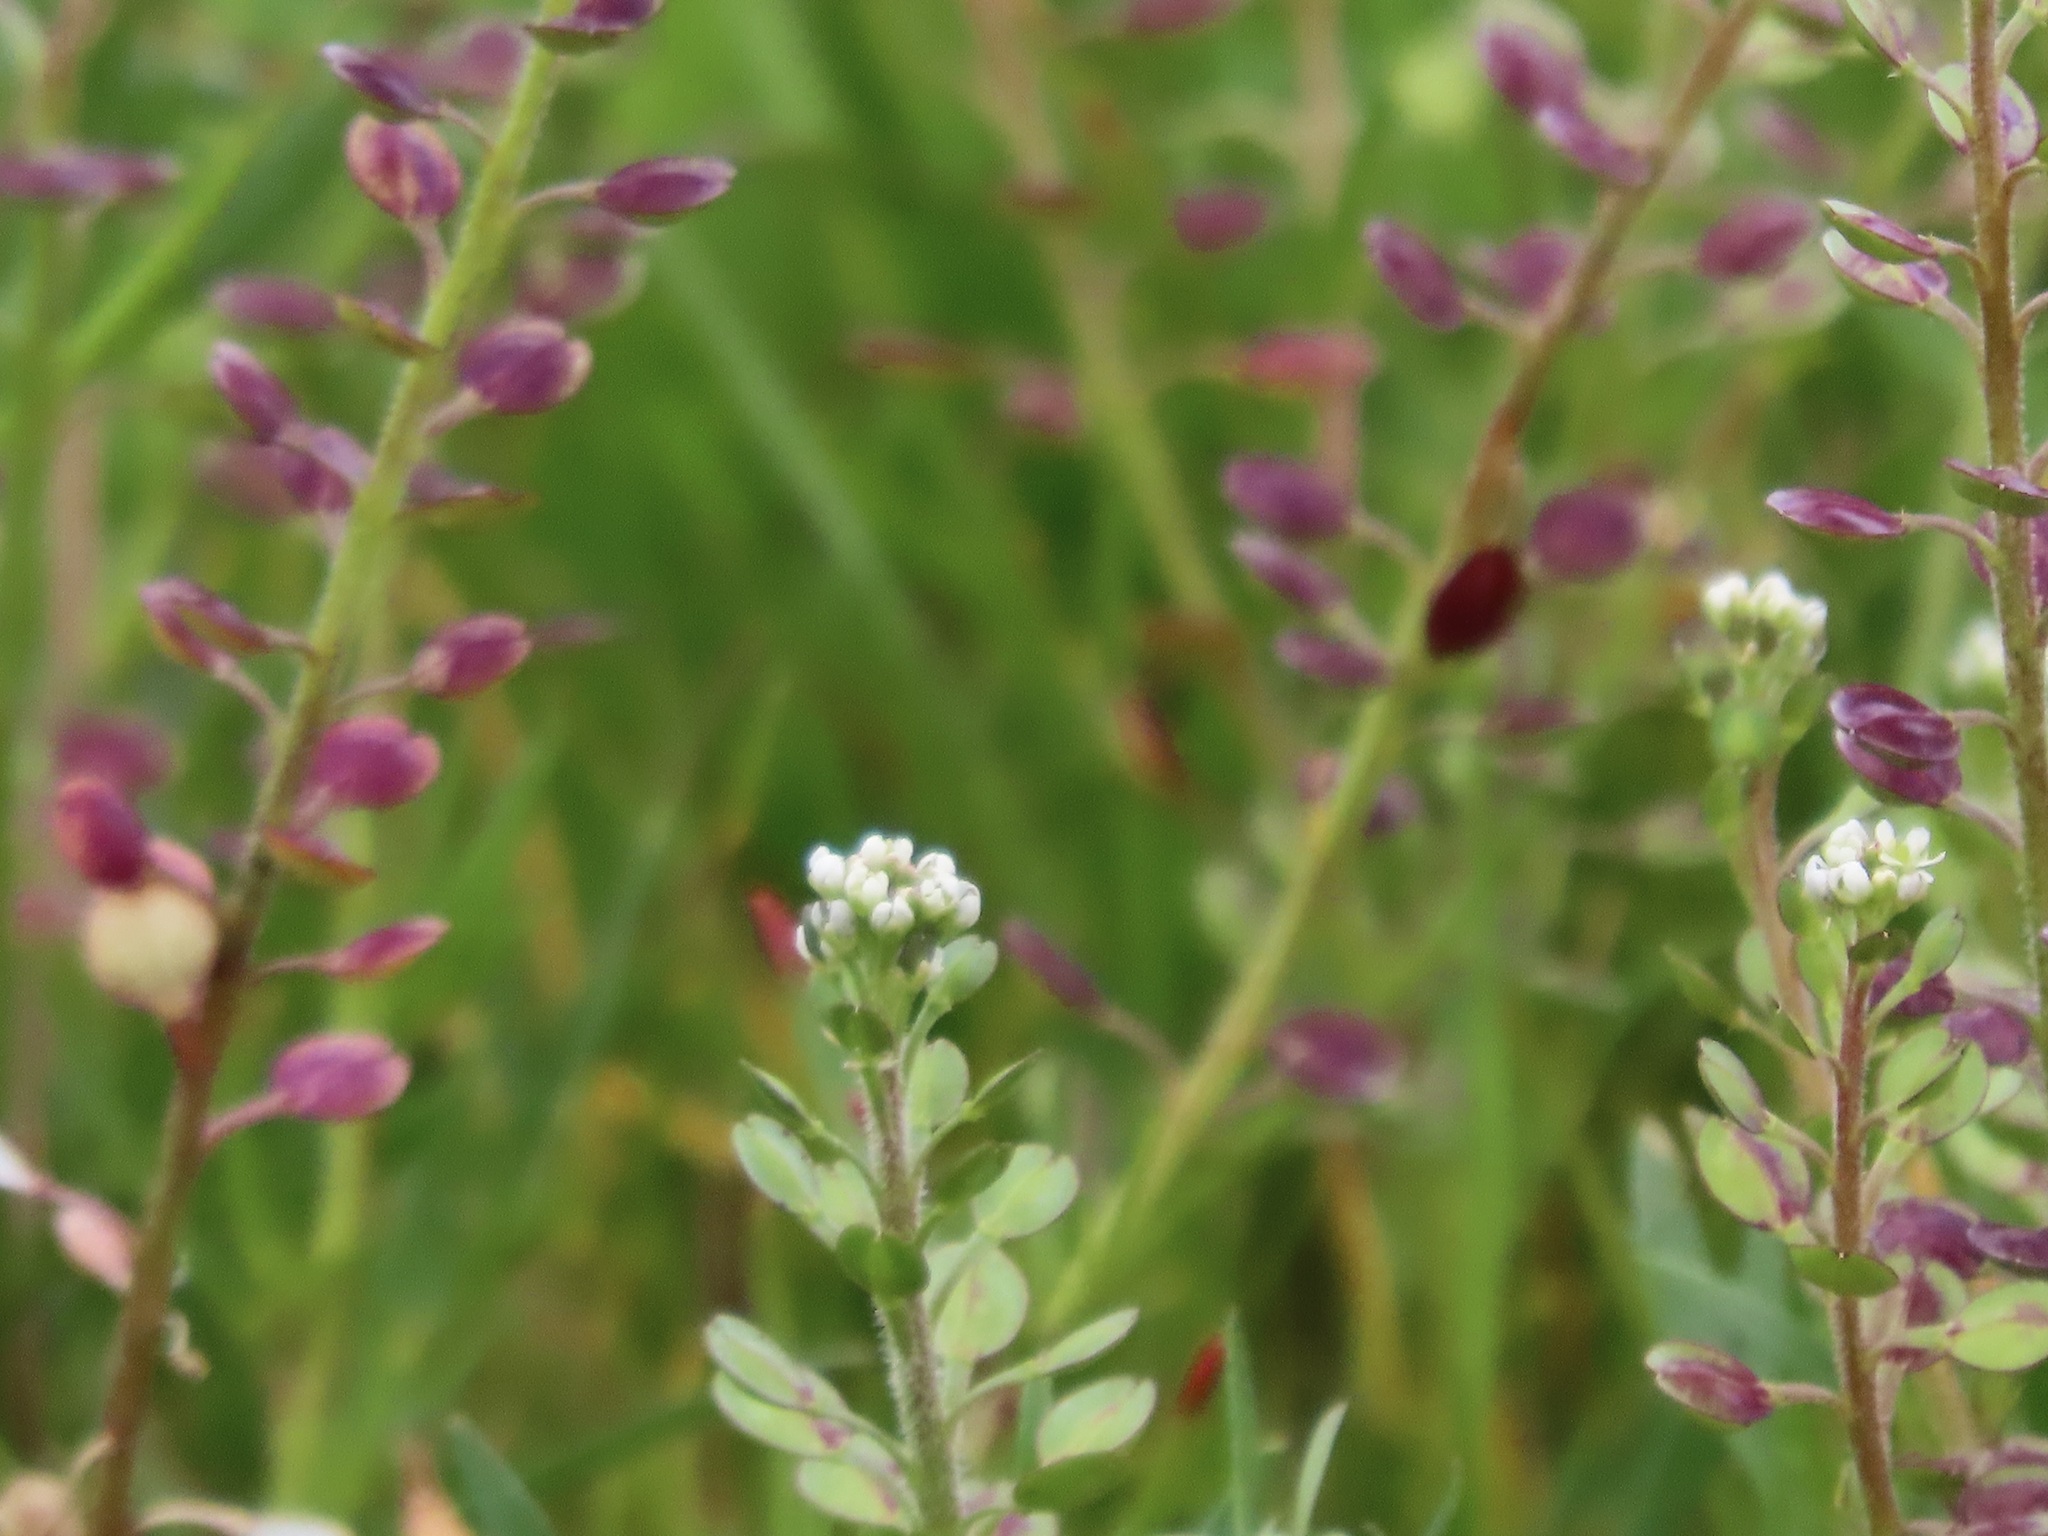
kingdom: Plantae
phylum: Tracheophyta
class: Magnoliopsida
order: Brassicales
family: Brassicaceae
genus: Lepidium
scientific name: Lepidium nitidum
